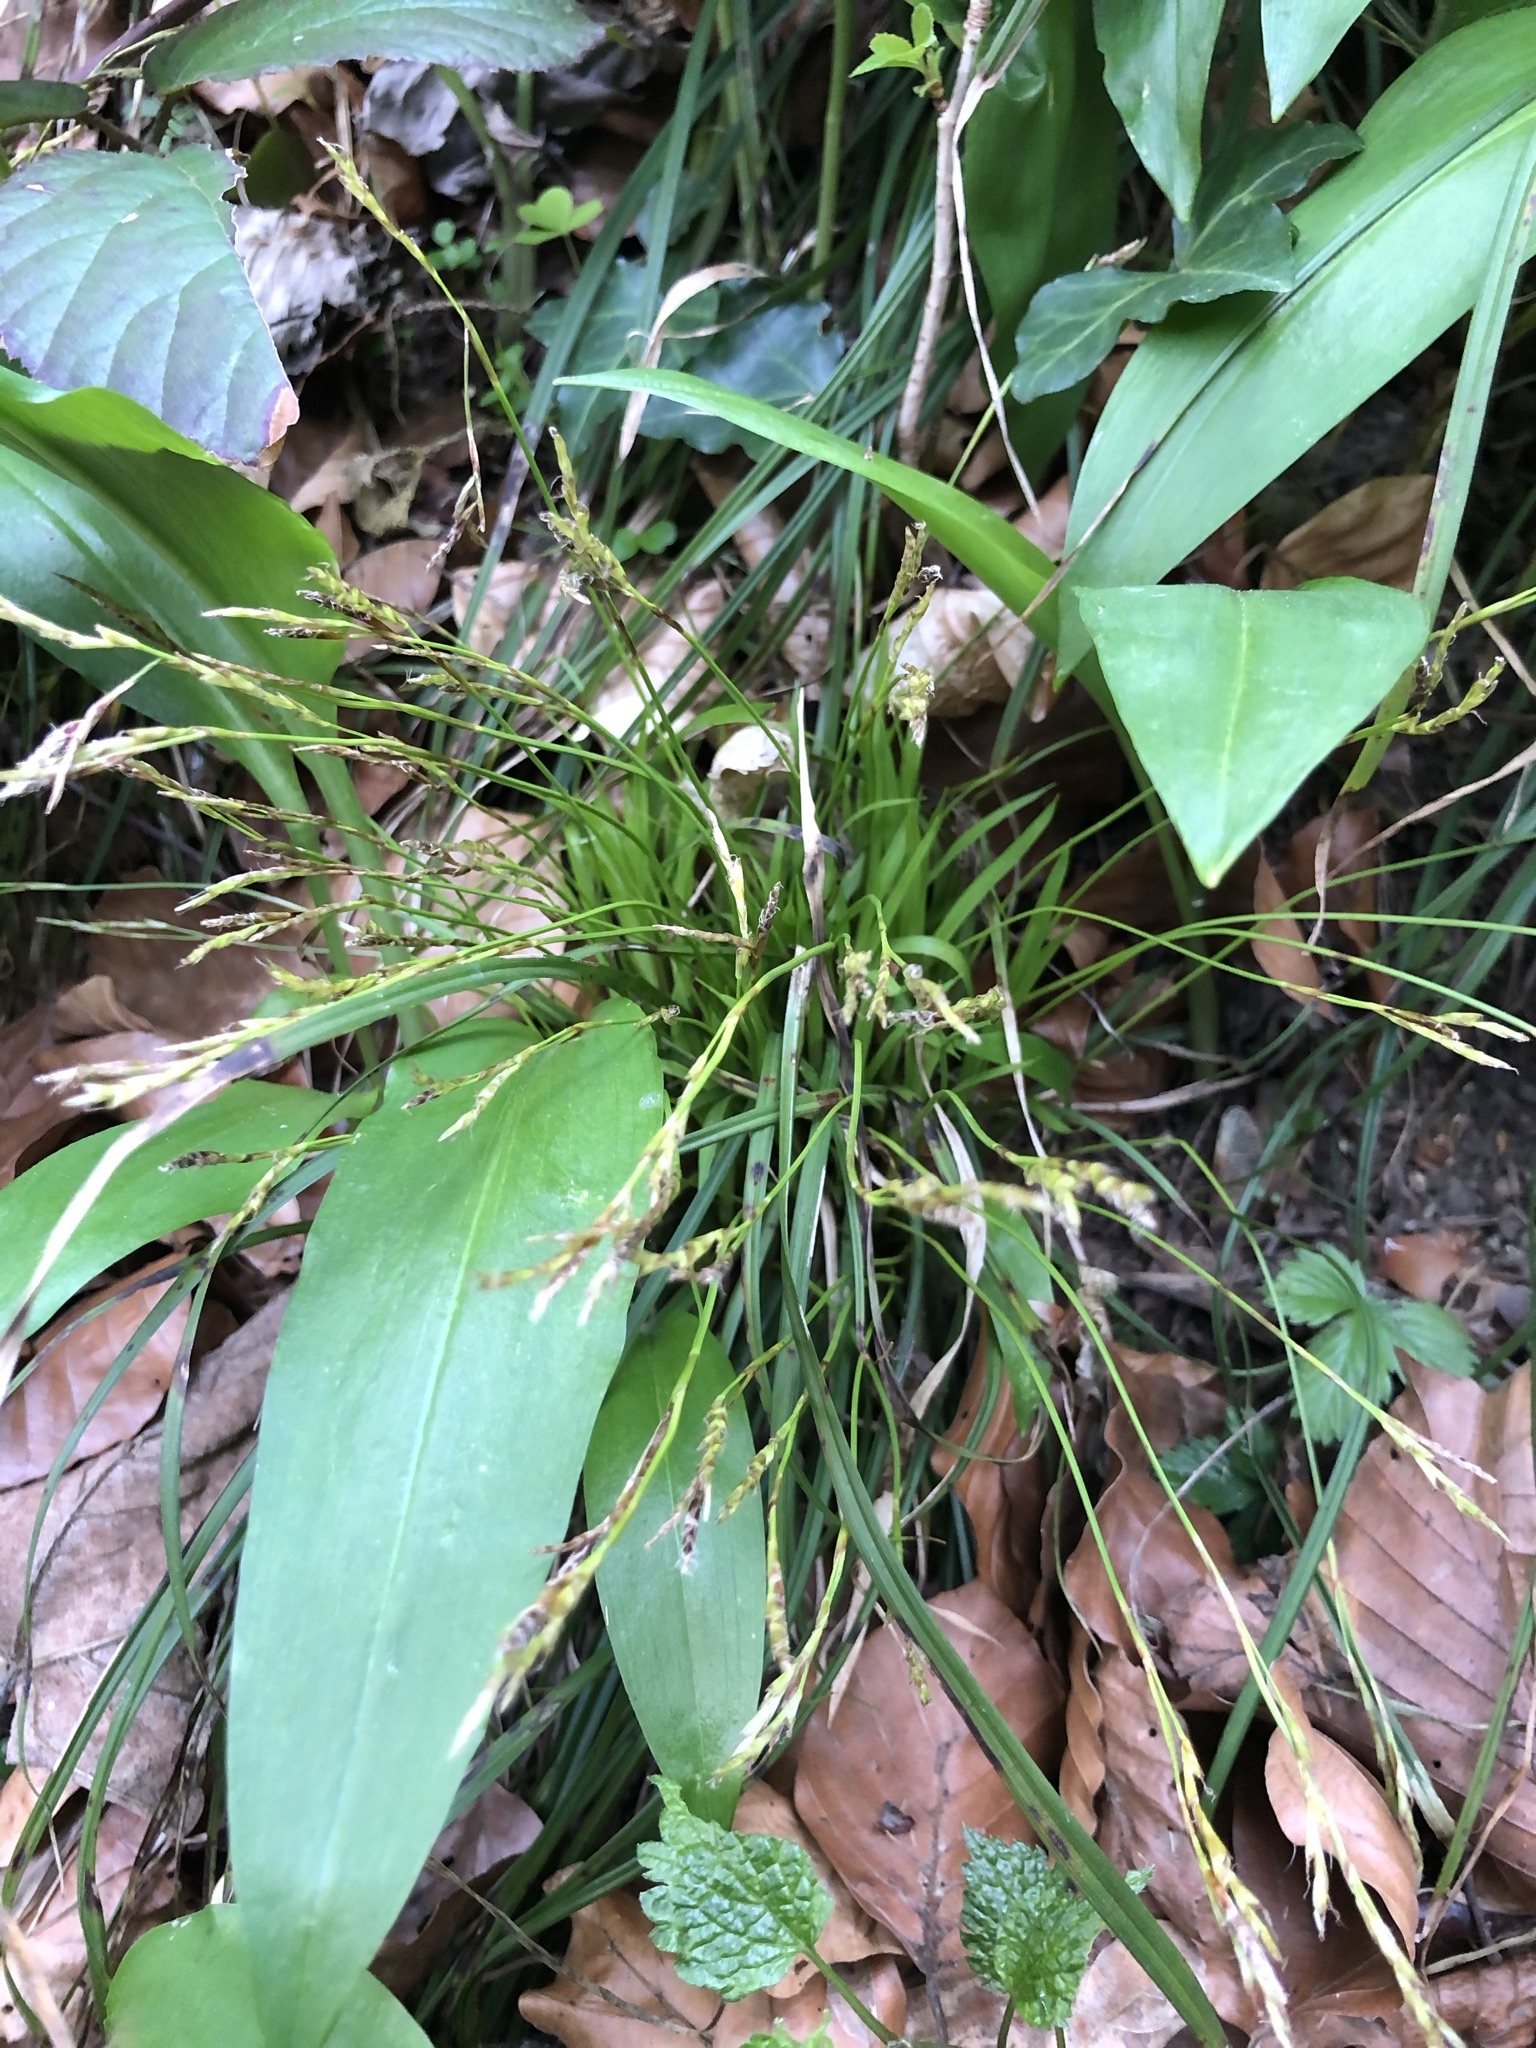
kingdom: Plantae
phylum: Tracheophyta
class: Liliopsida
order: Poales
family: Cyperaceae
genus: Carex
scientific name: Carex digitata
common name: Fingered sedge
